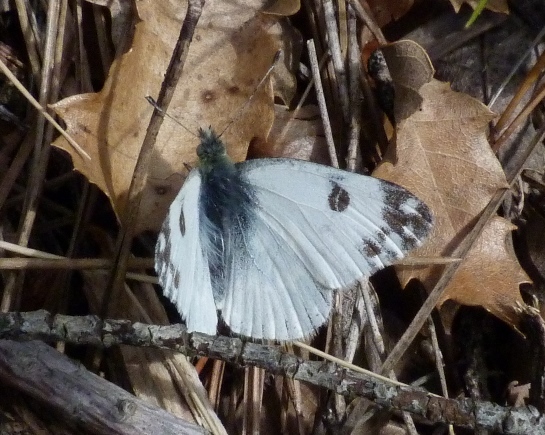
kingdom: Animalia
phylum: Arthropoda
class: Insecta
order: Lepidoptera
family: Pieridae
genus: Pontia
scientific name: Pontia daplidice
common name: Bath white
